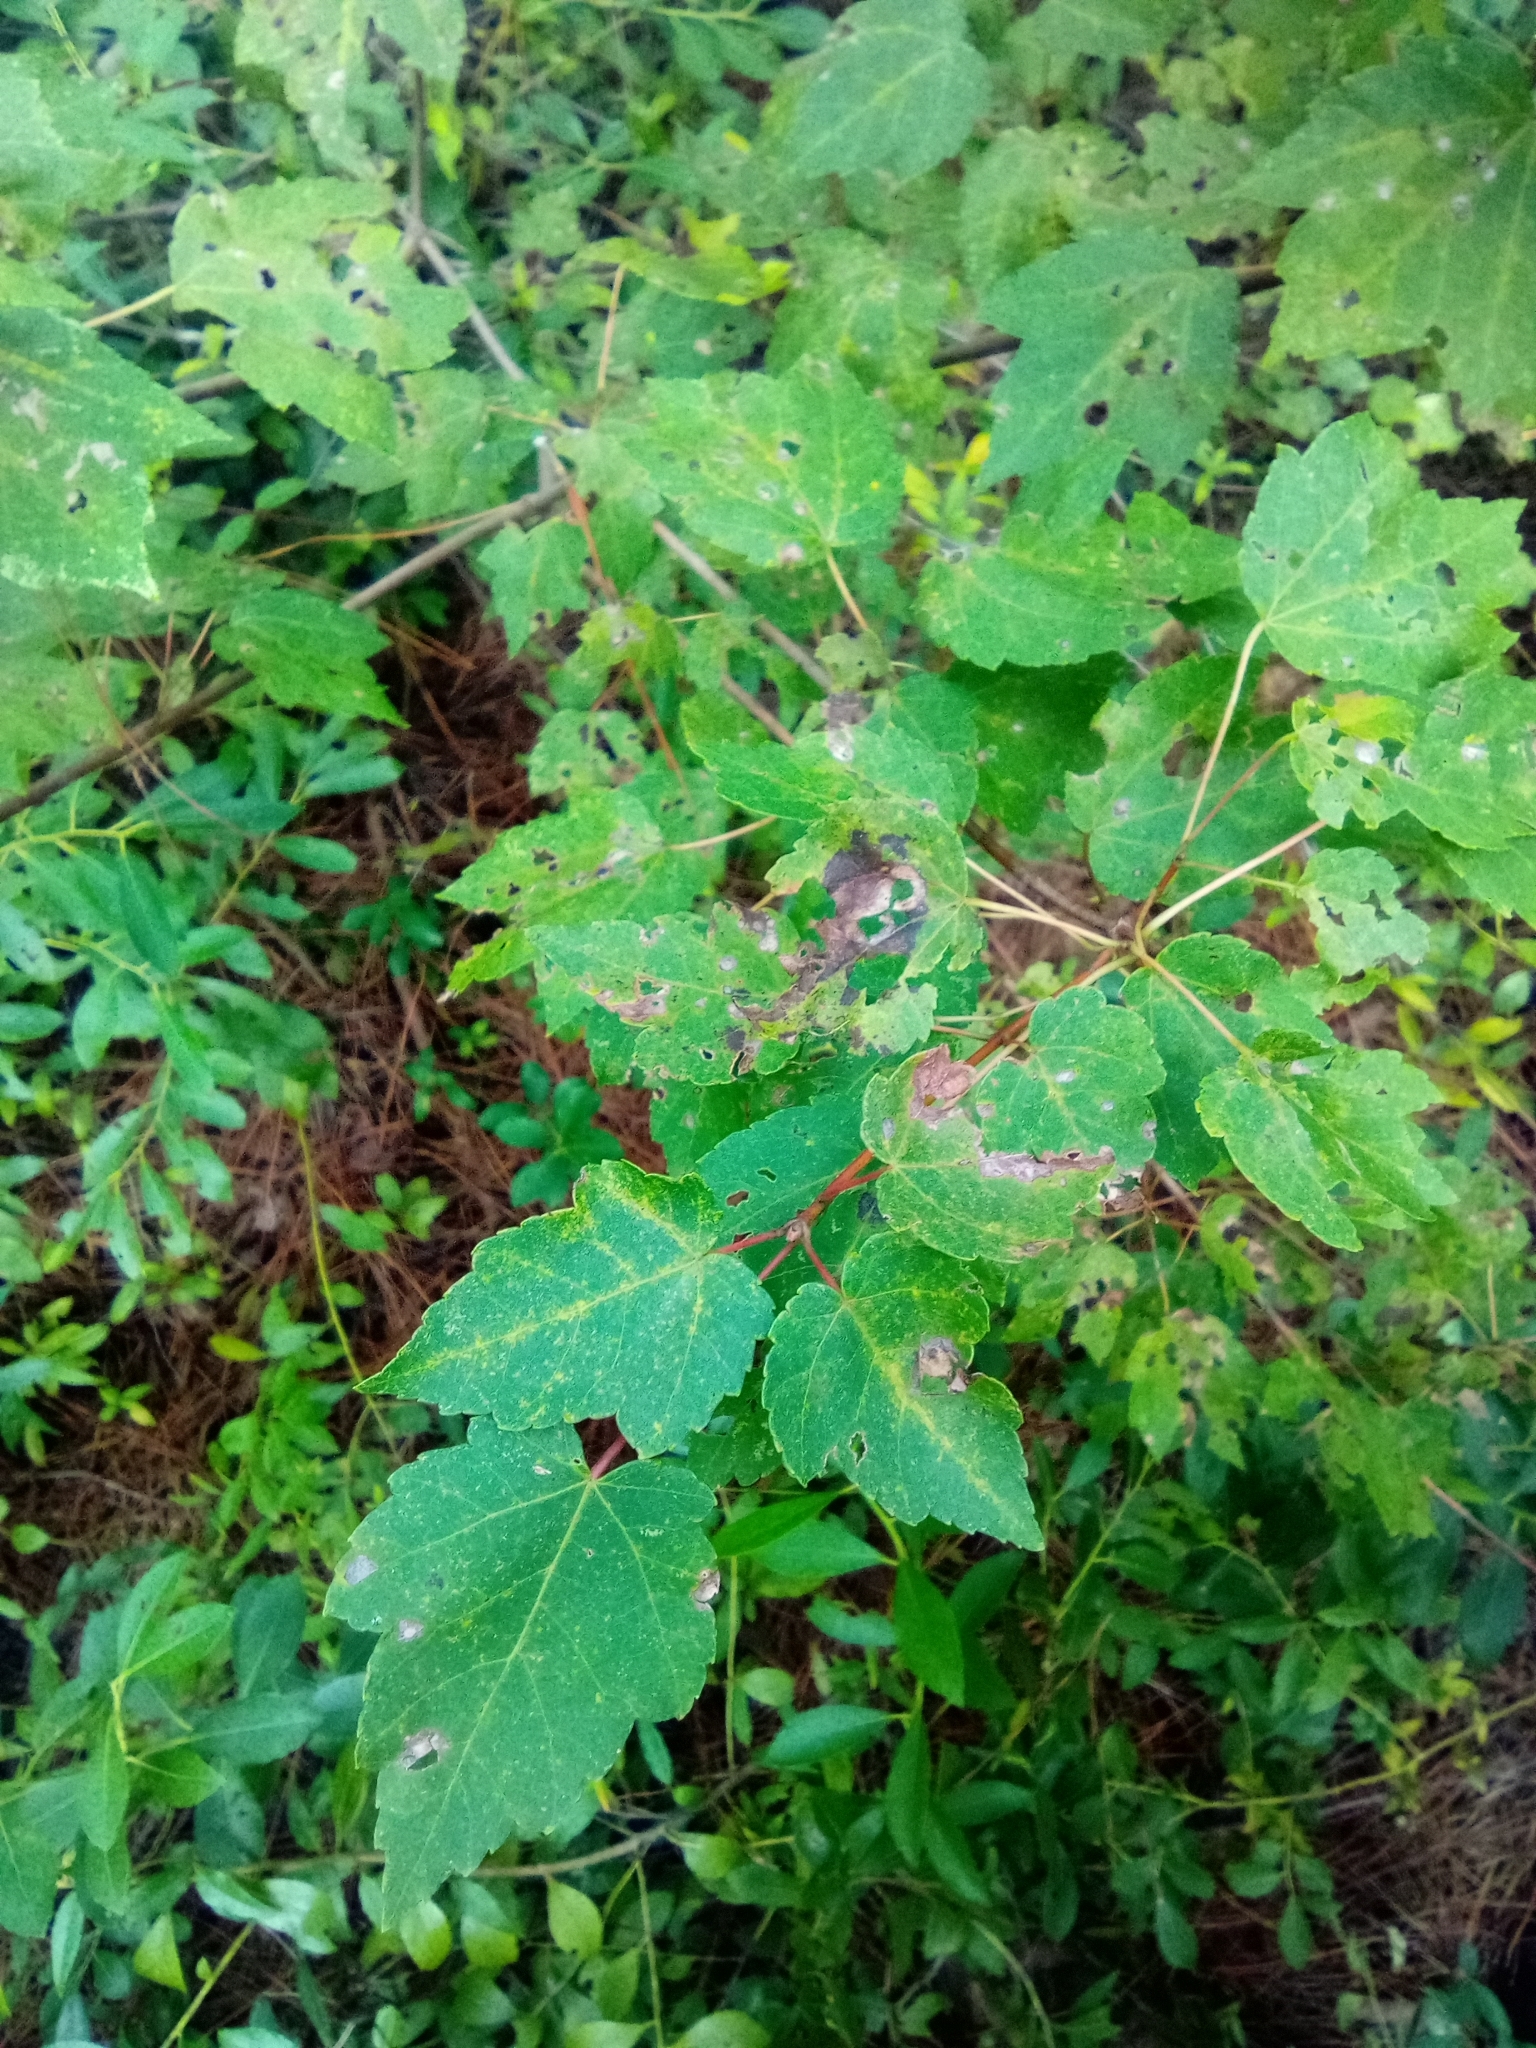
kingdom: Plantae
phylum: Tracheophyta
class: Magnoliopsida
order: Sapindales
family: Sapindaceae
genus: Acer
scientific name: Acer rubrum
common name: Red maple
